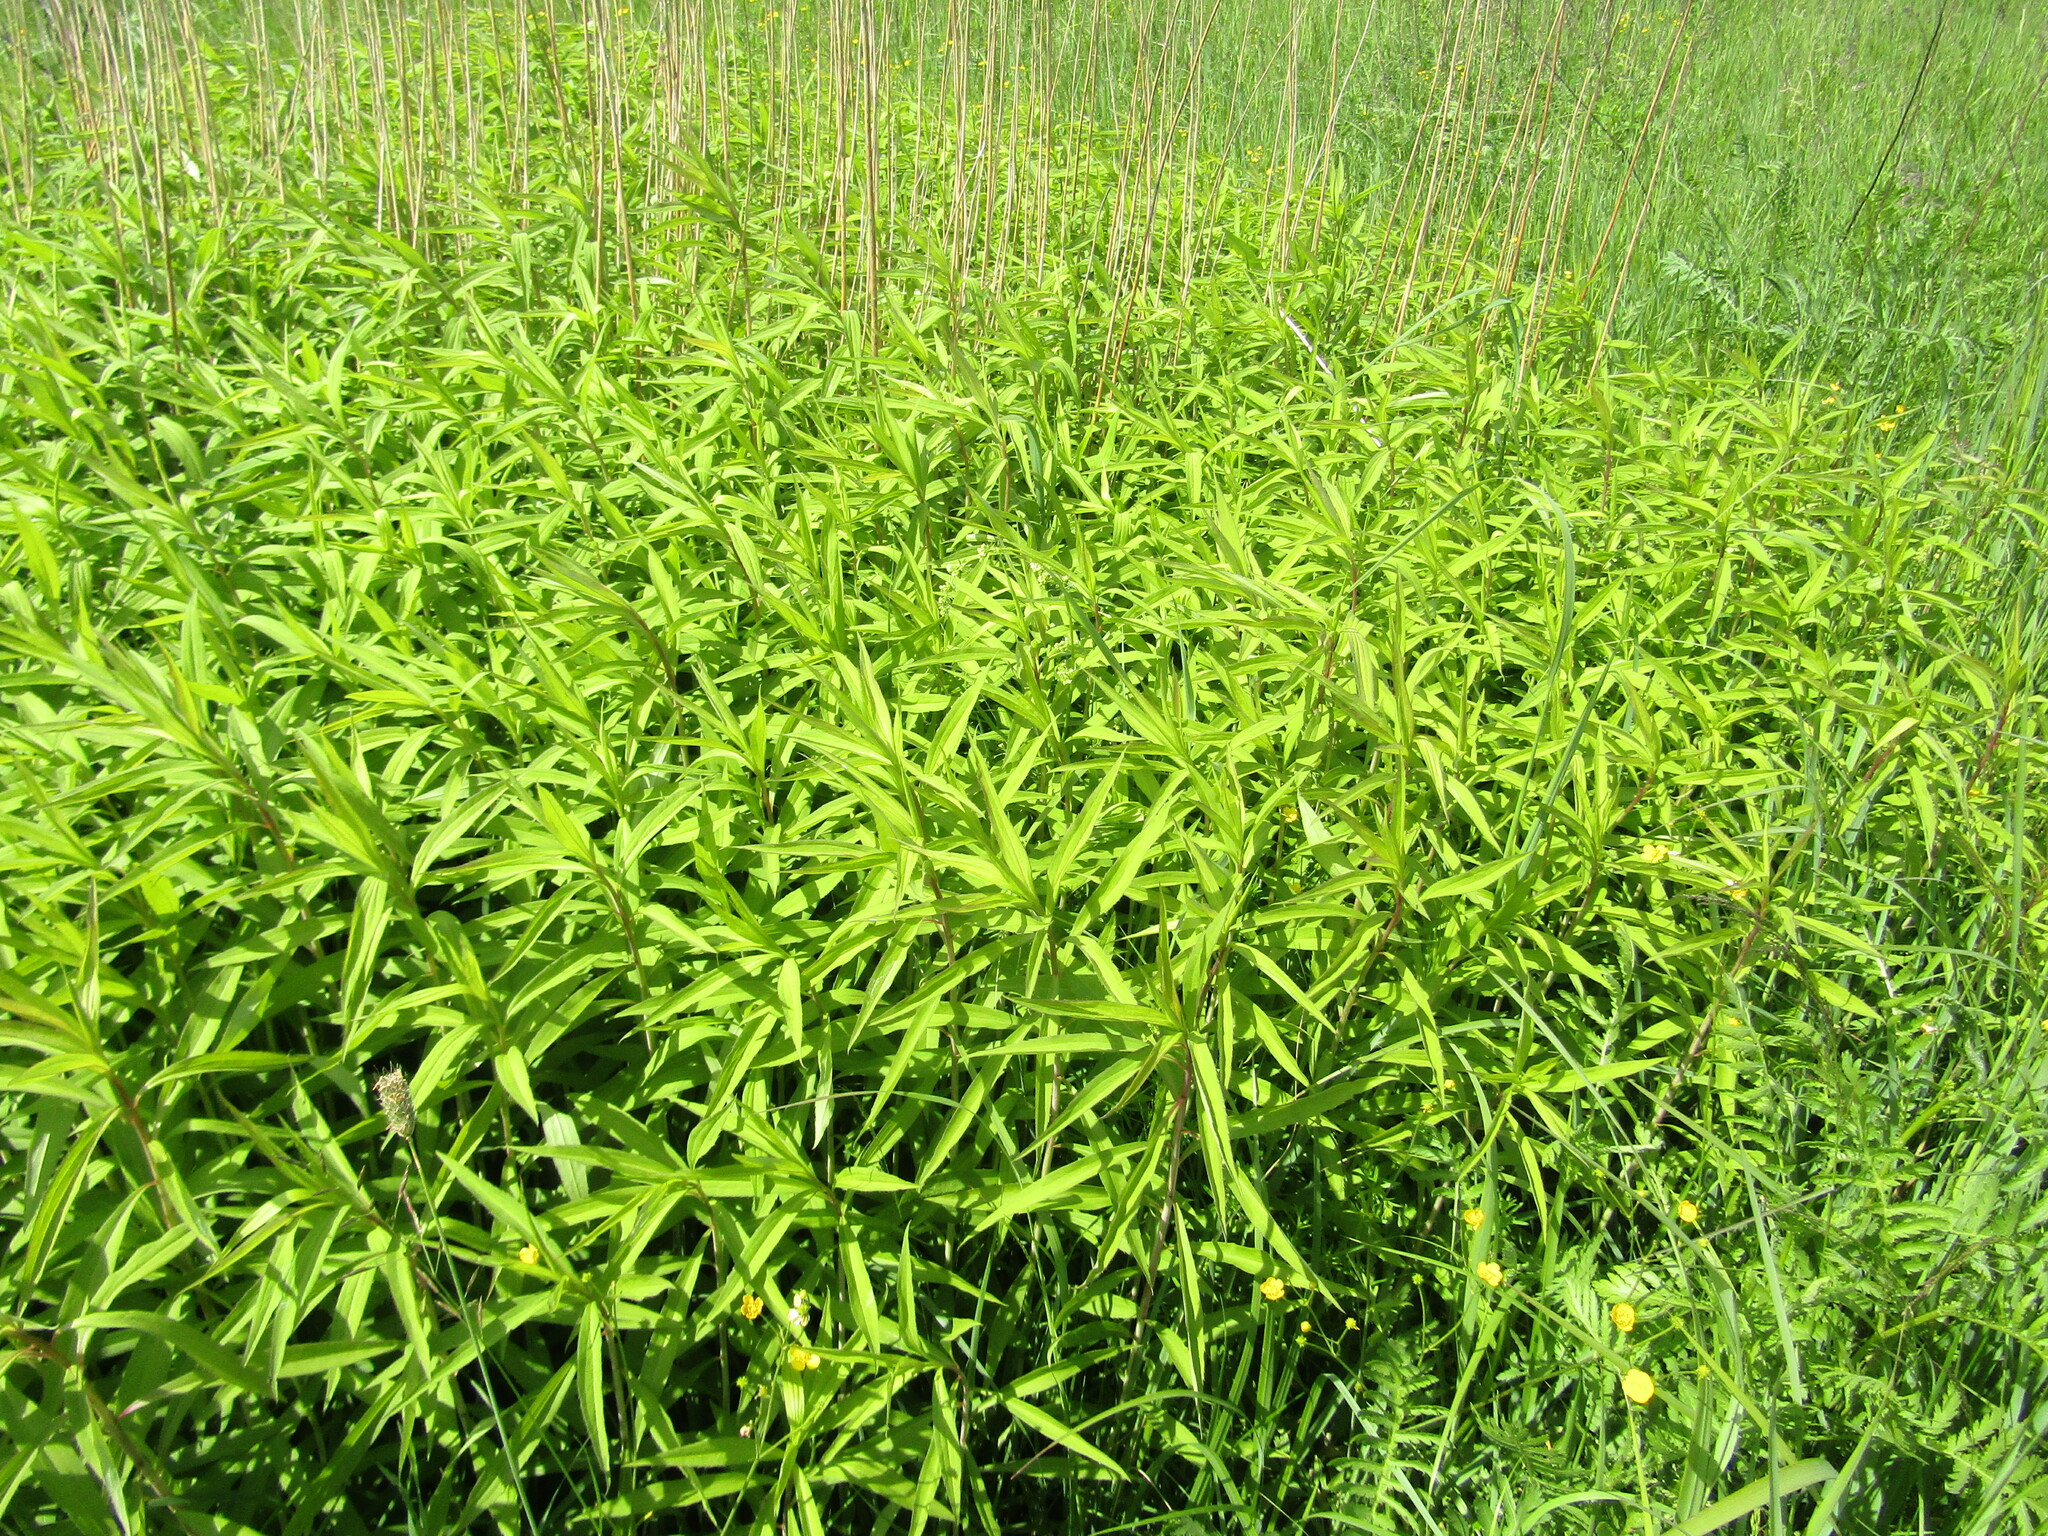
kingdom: Plantae
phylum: Tracheophyta
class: Magnoliopsida
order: Asterales
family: Asteraceae
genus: Solidago
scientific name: Solidago gigantea
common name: Giant goldenrod
